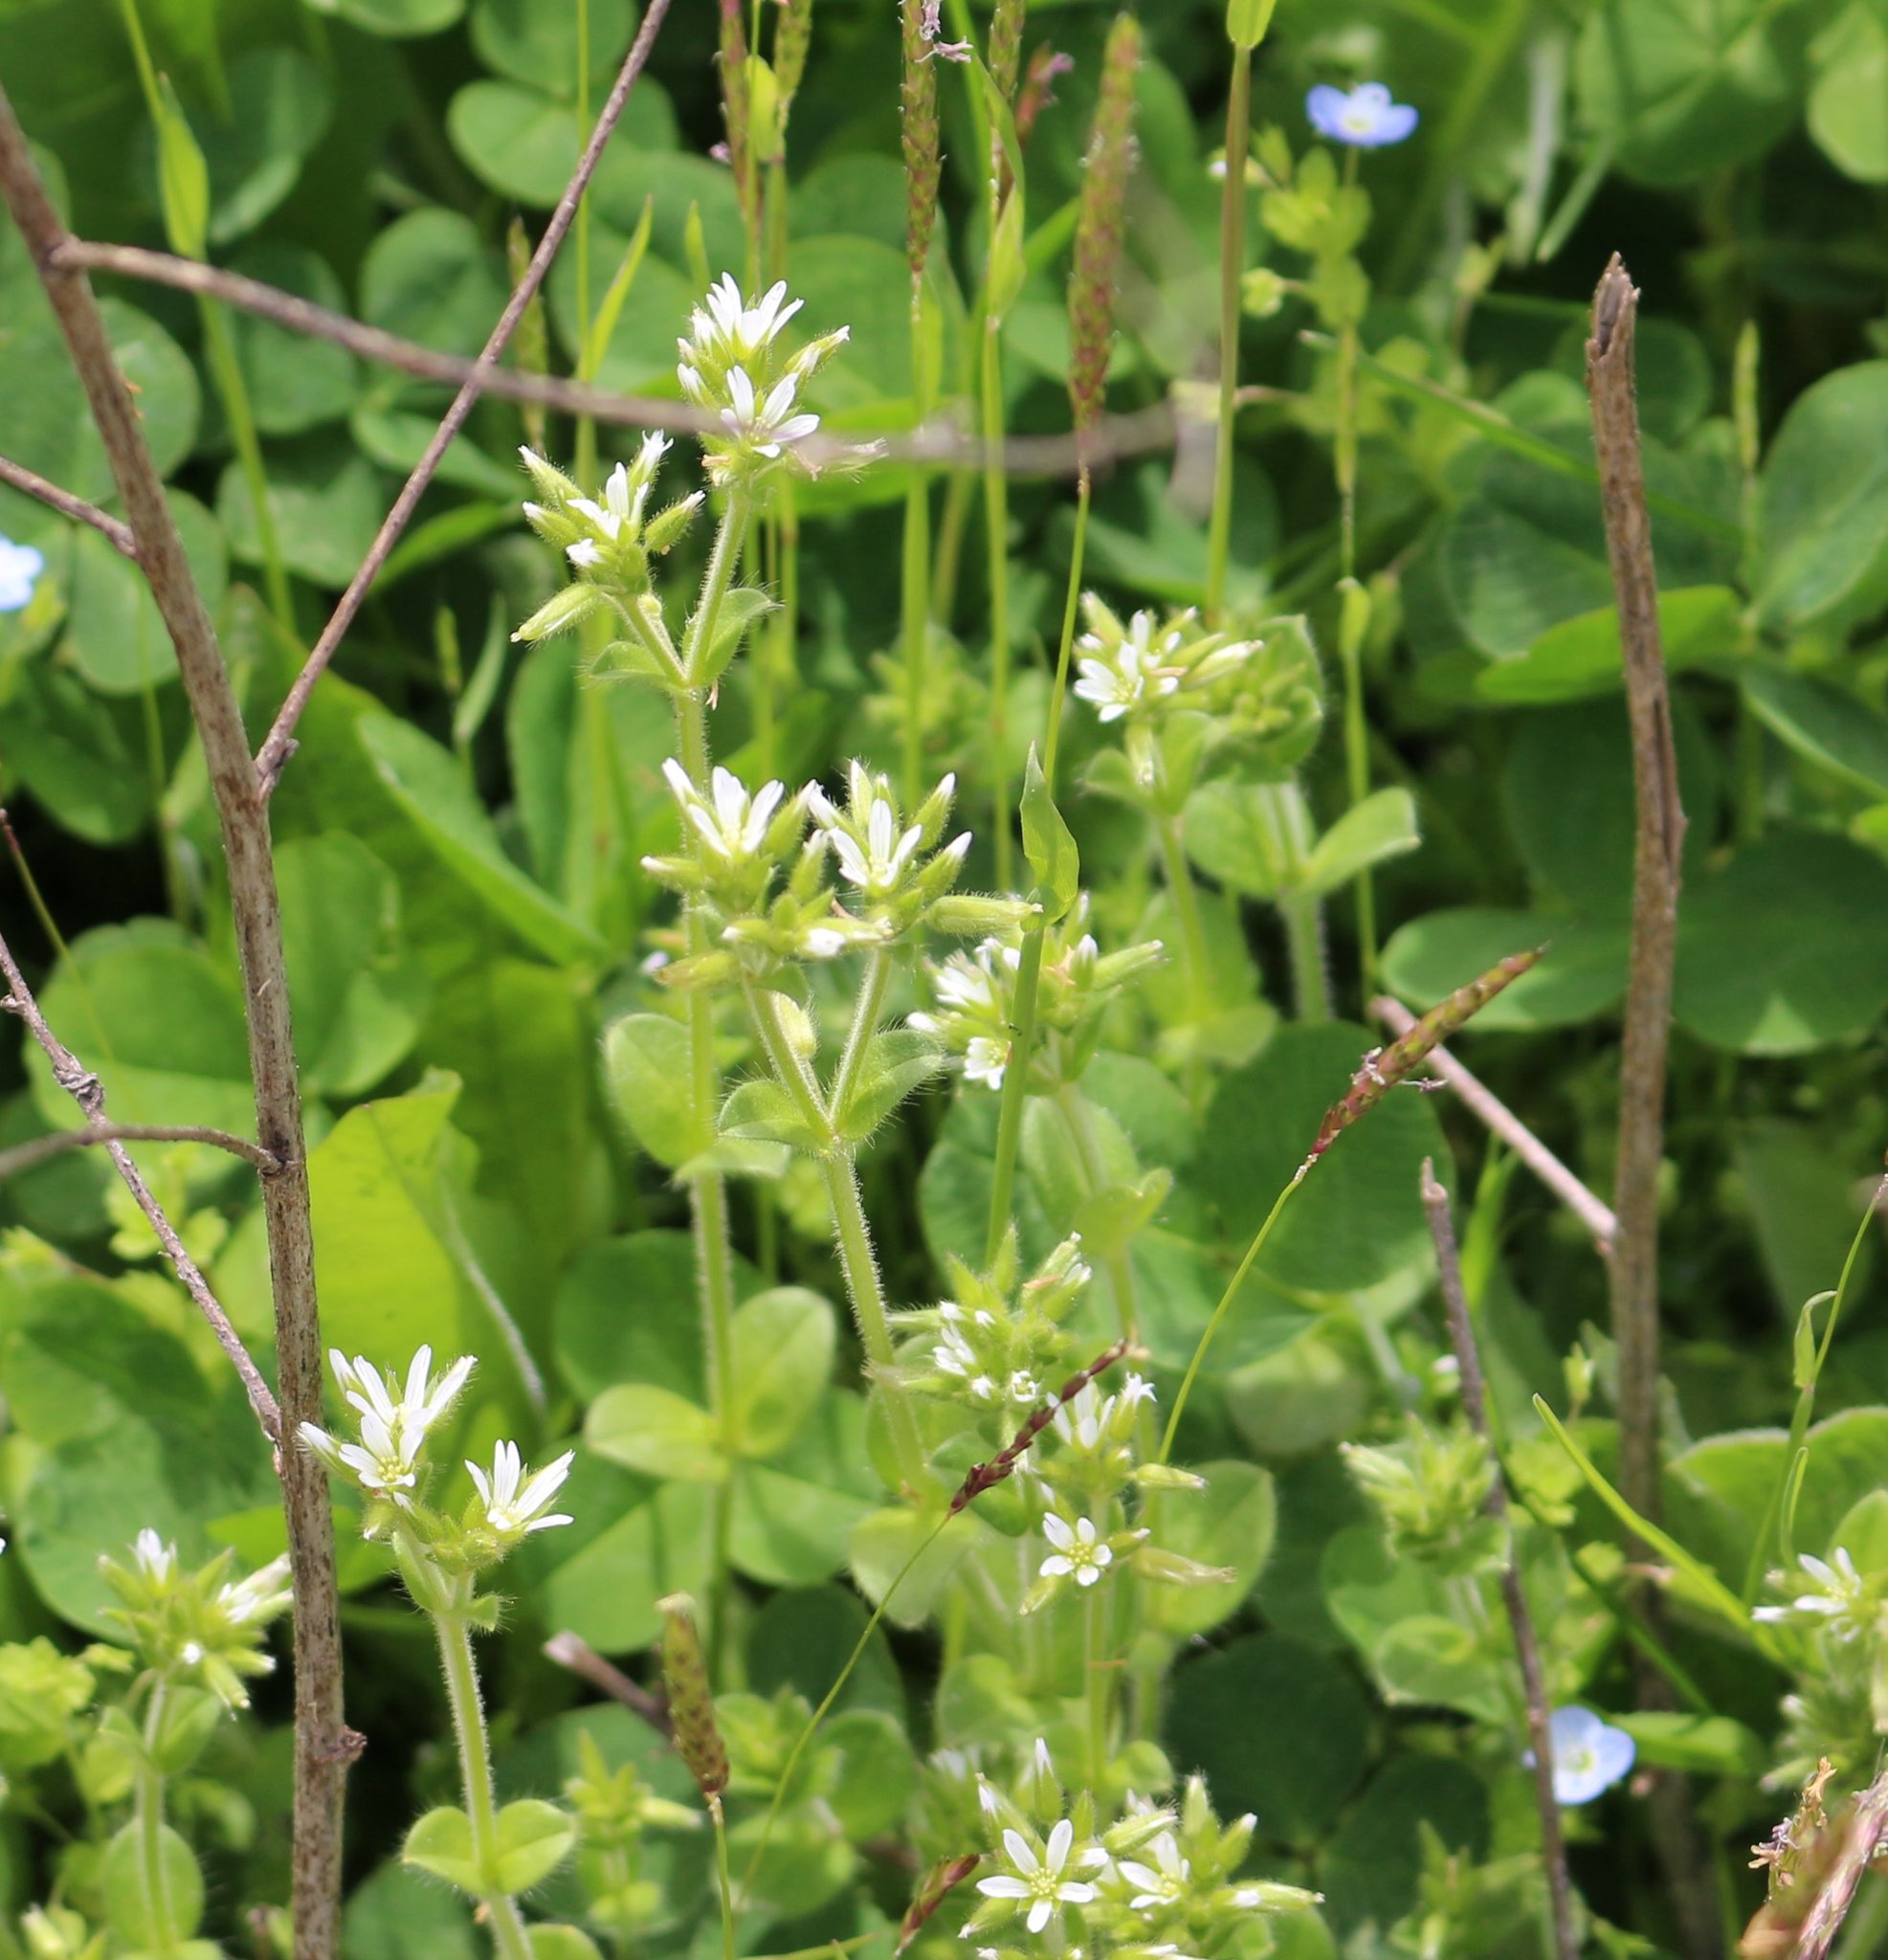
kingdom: Plantae
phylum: Tracheophyta
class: Magnoliopsida
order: Caryophyllales
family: Caryophyllaceae
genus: Cerastium
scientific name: Cerastium glomeratum
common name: Sticky chickweed
